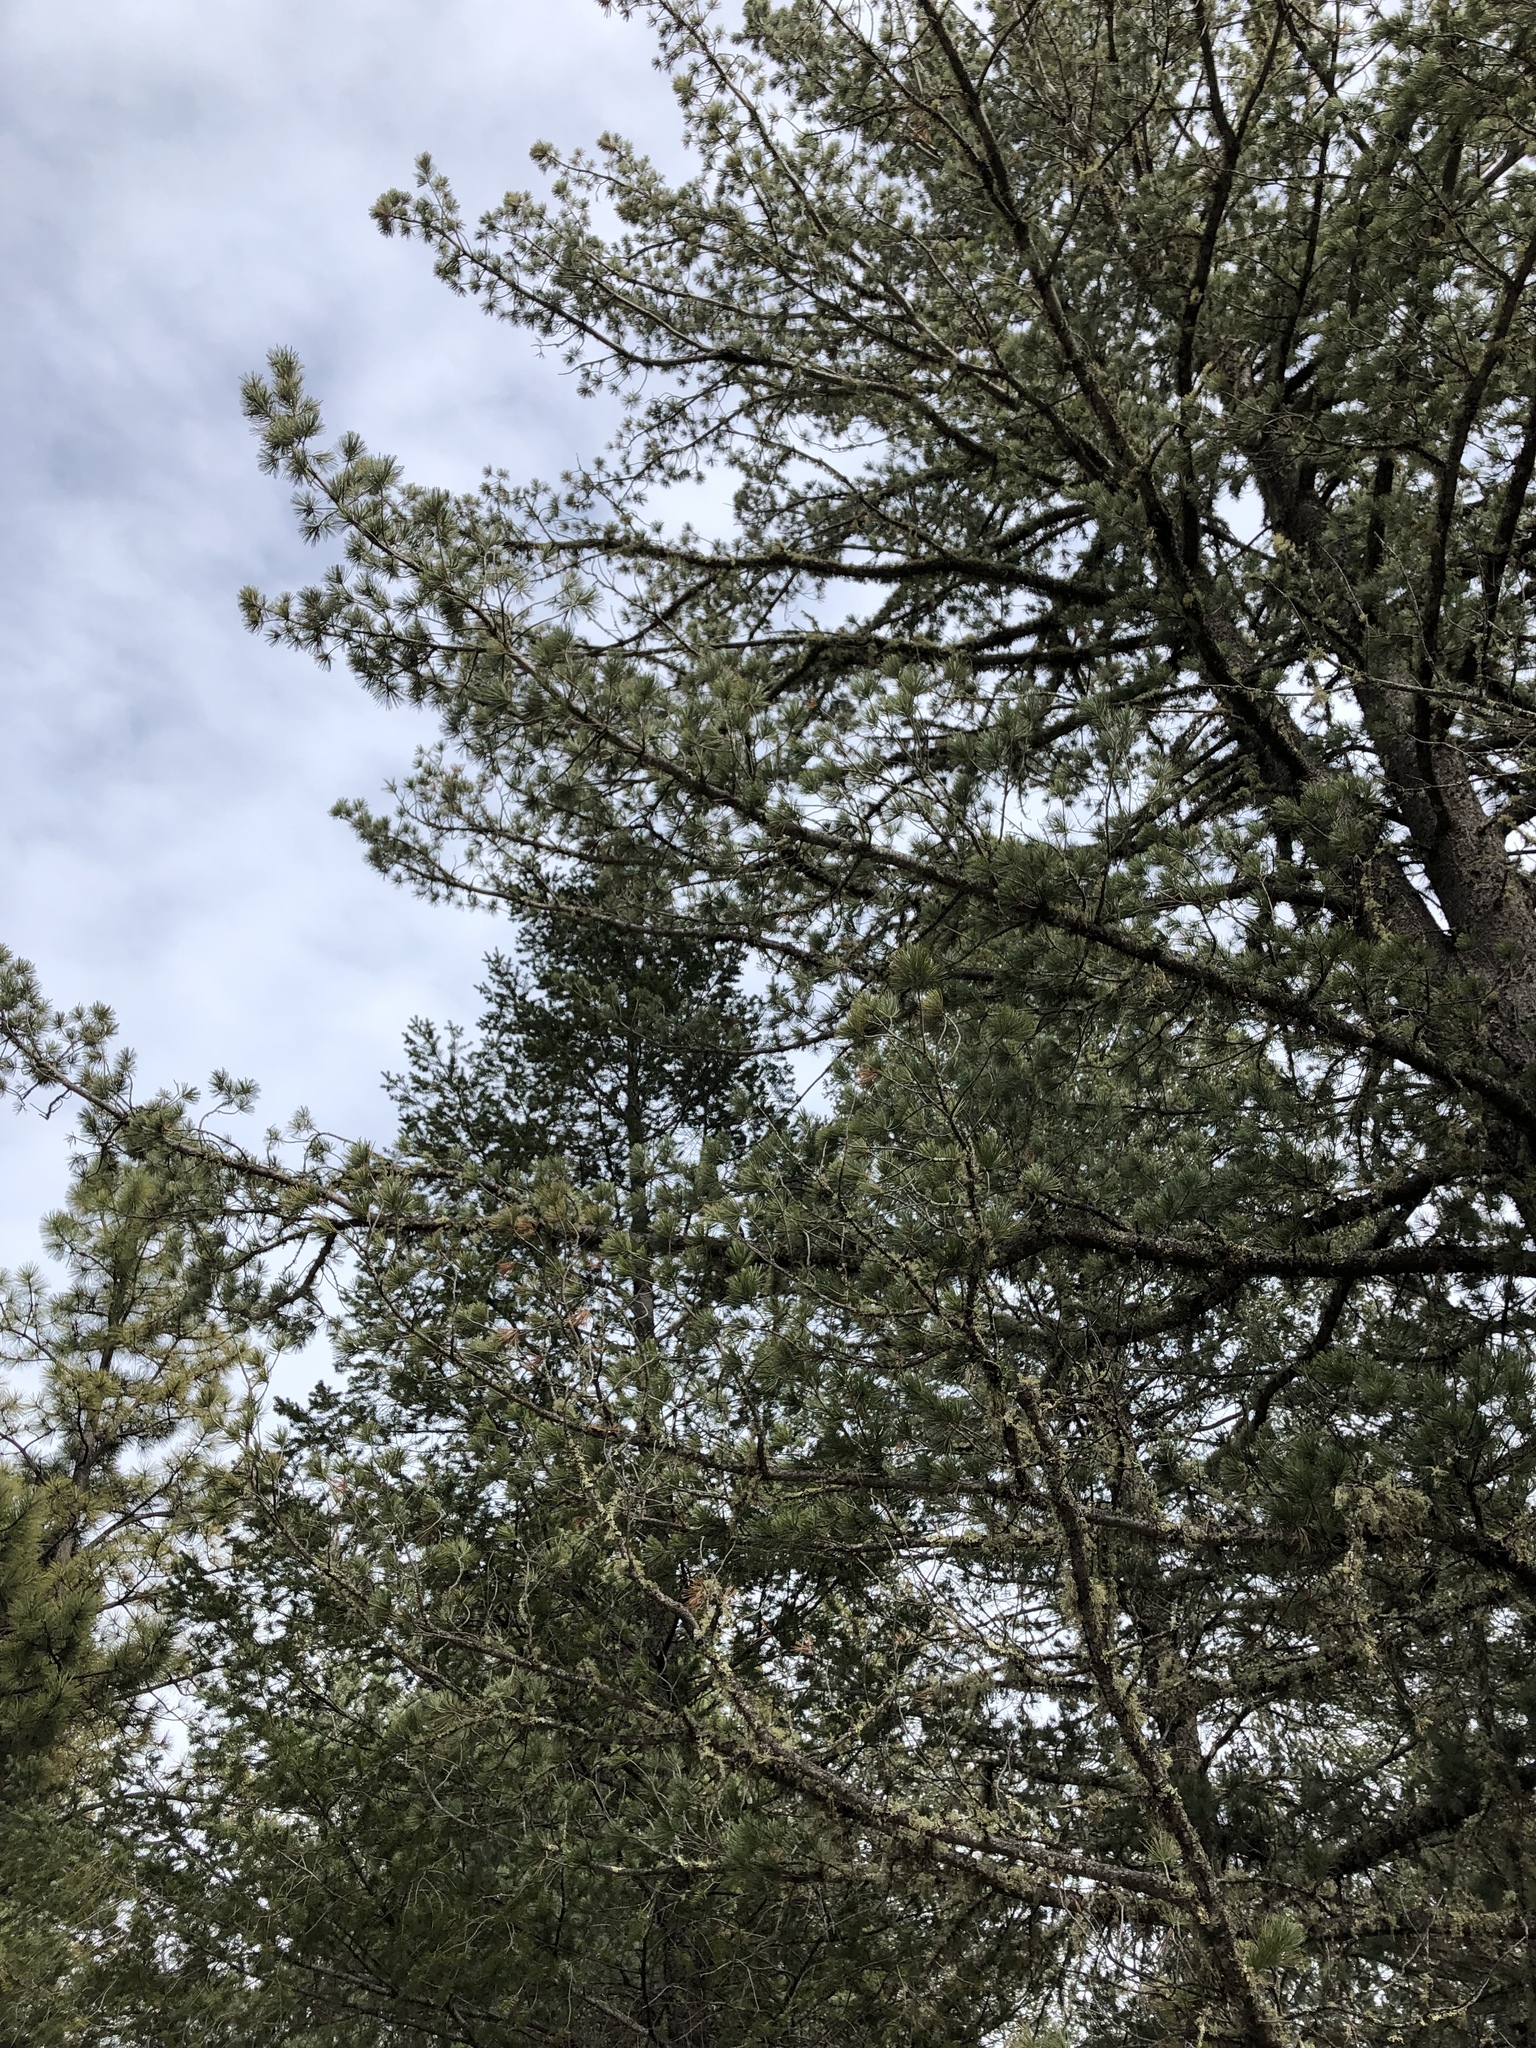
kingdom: Plantae
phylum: Tracheophyta
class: Pinopsida
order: Pinales
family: Pinaceae
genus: Pinus
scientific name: Pinus strobiformis
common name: Southwestern white pine
